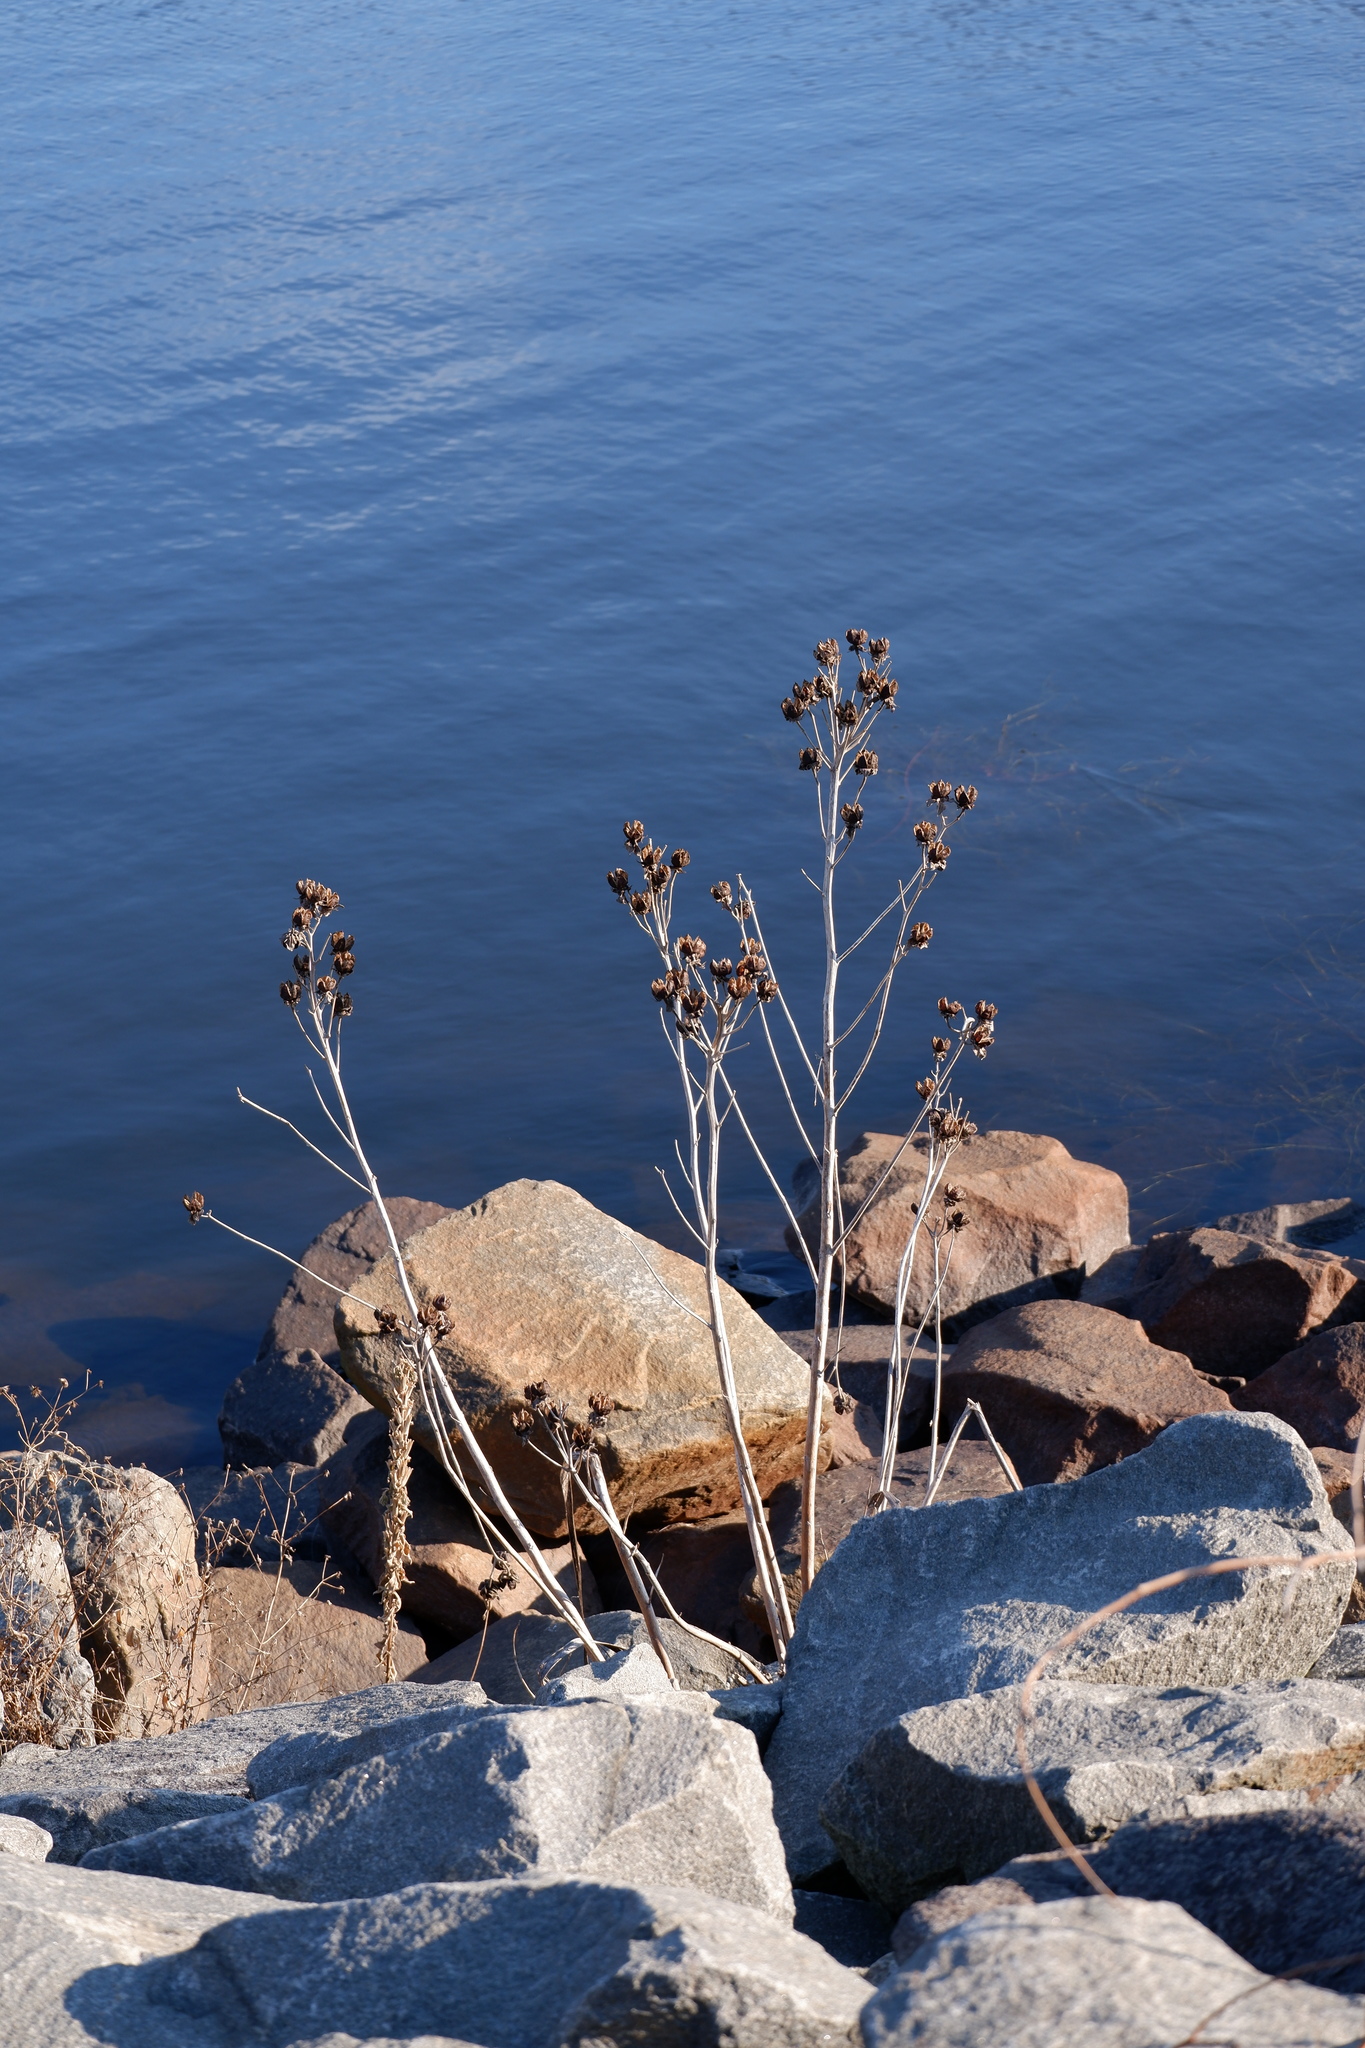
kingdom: Plantae
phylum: Tracheophyta
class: Magnoliopsida
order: Malvales
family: Malvaceae
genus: Hibiscus
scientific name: Hibiscus moscheutos
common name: Common rose-mallow
